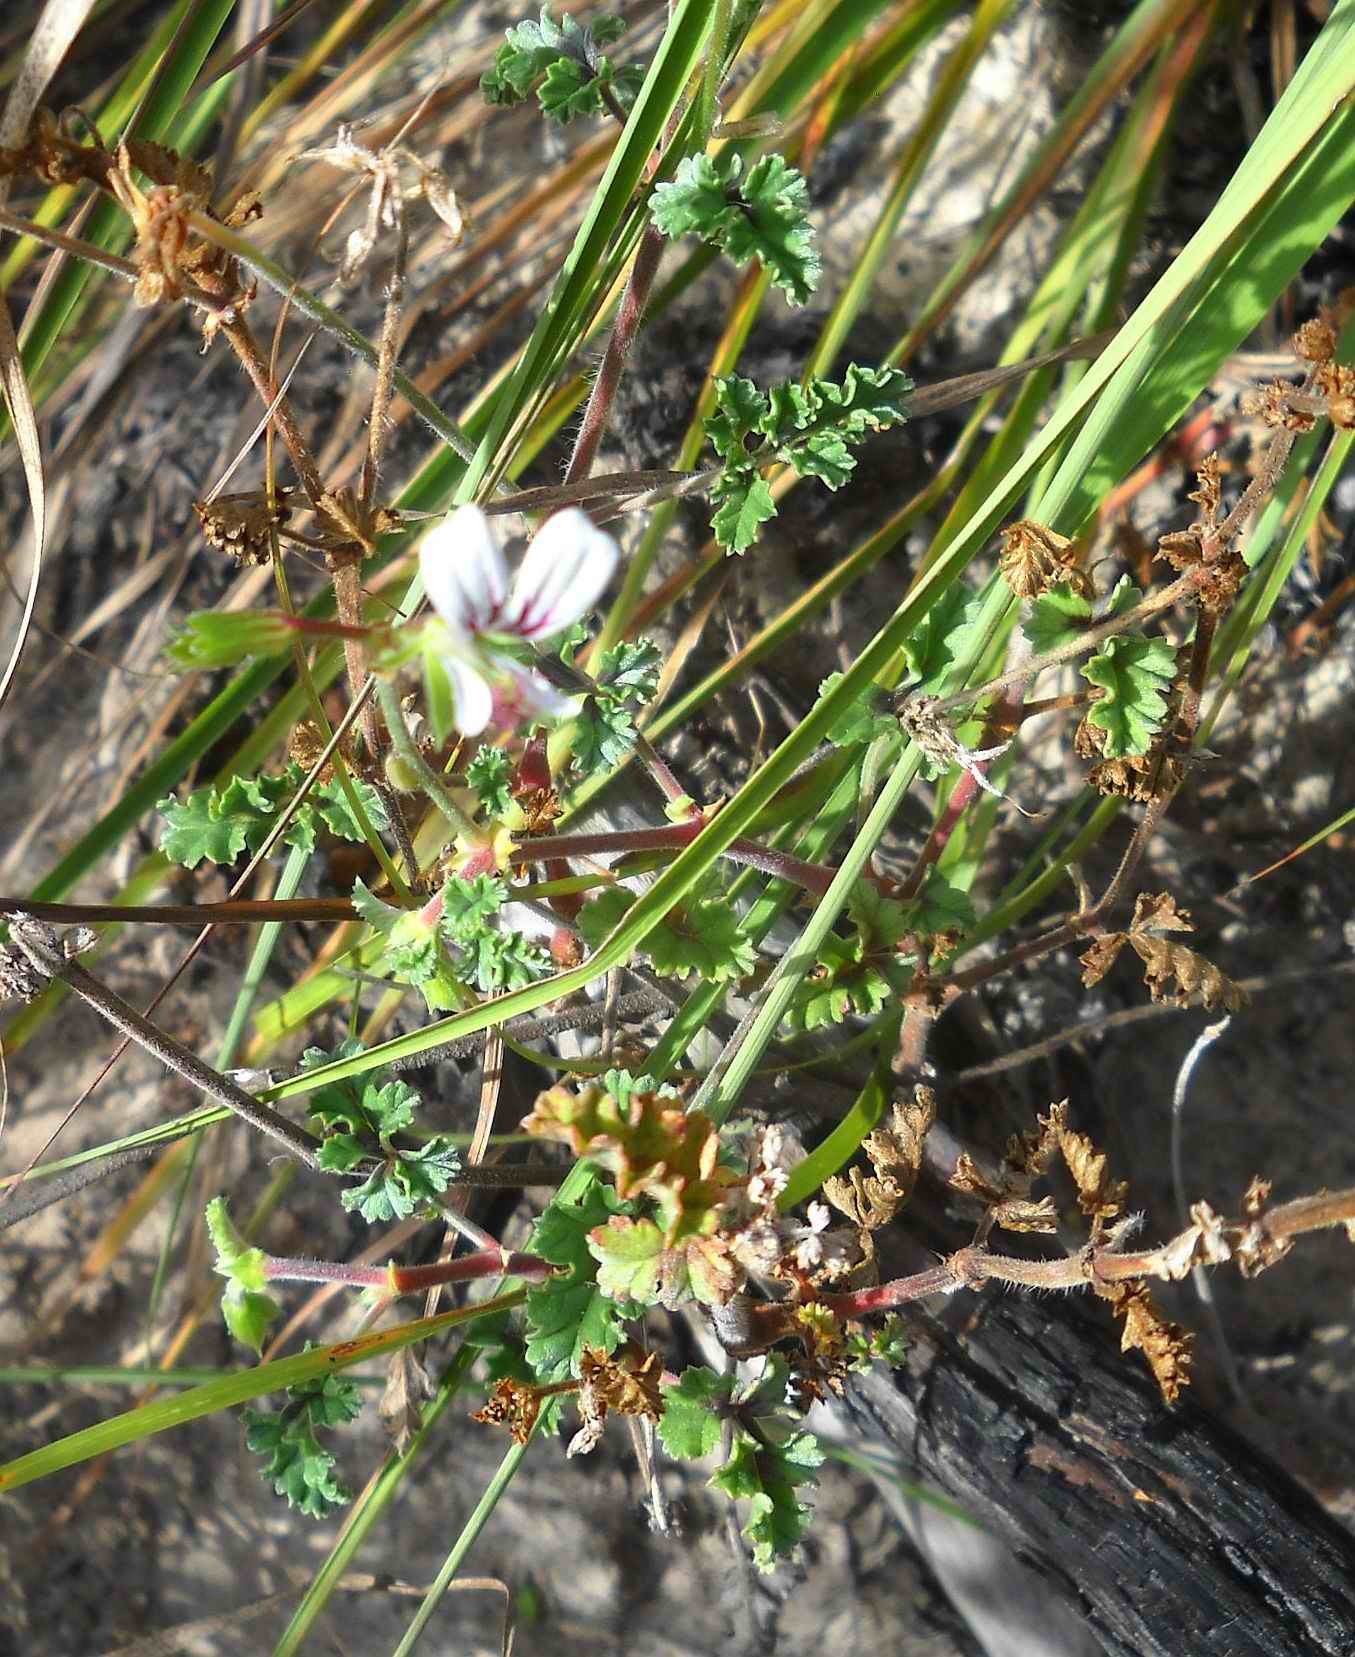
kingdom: Plantae
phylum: Tracheophyta
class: Magnoliopsida
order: Geraniales
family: Geraniaceae
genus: Pelargonium
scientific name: Pelargonium candicans
